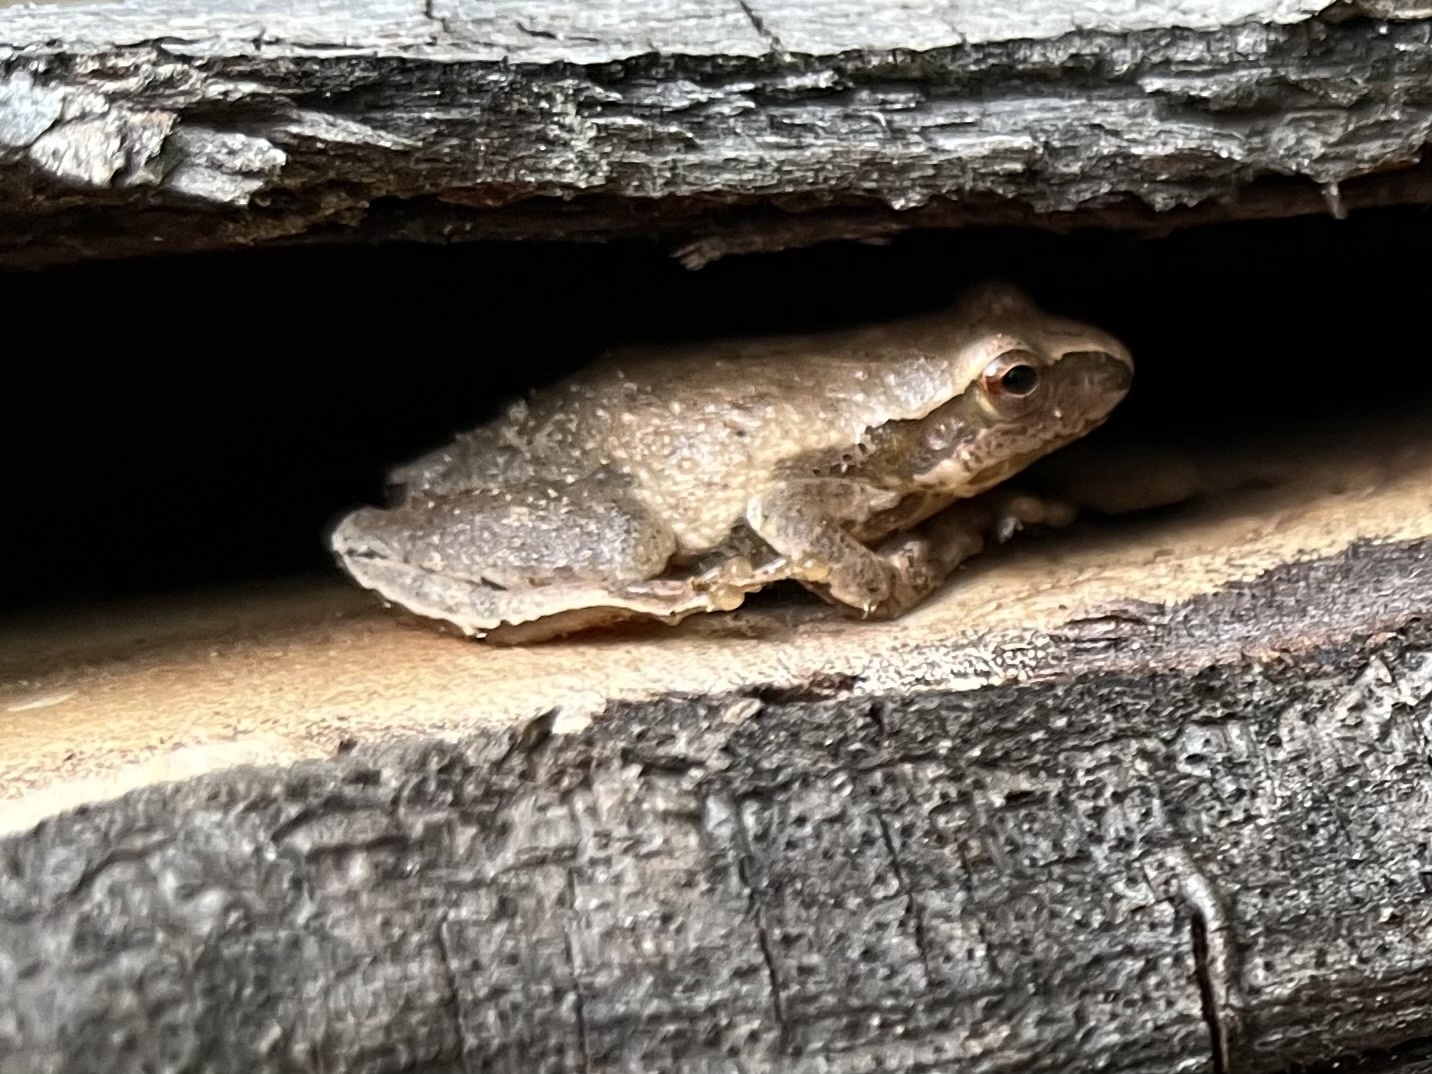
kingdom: Animalia
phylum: Chordata
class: Amphibia
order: Anura
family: Hylidae
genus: Pseudacris
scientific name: Pseudacris crucifer
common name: Spring peeper
